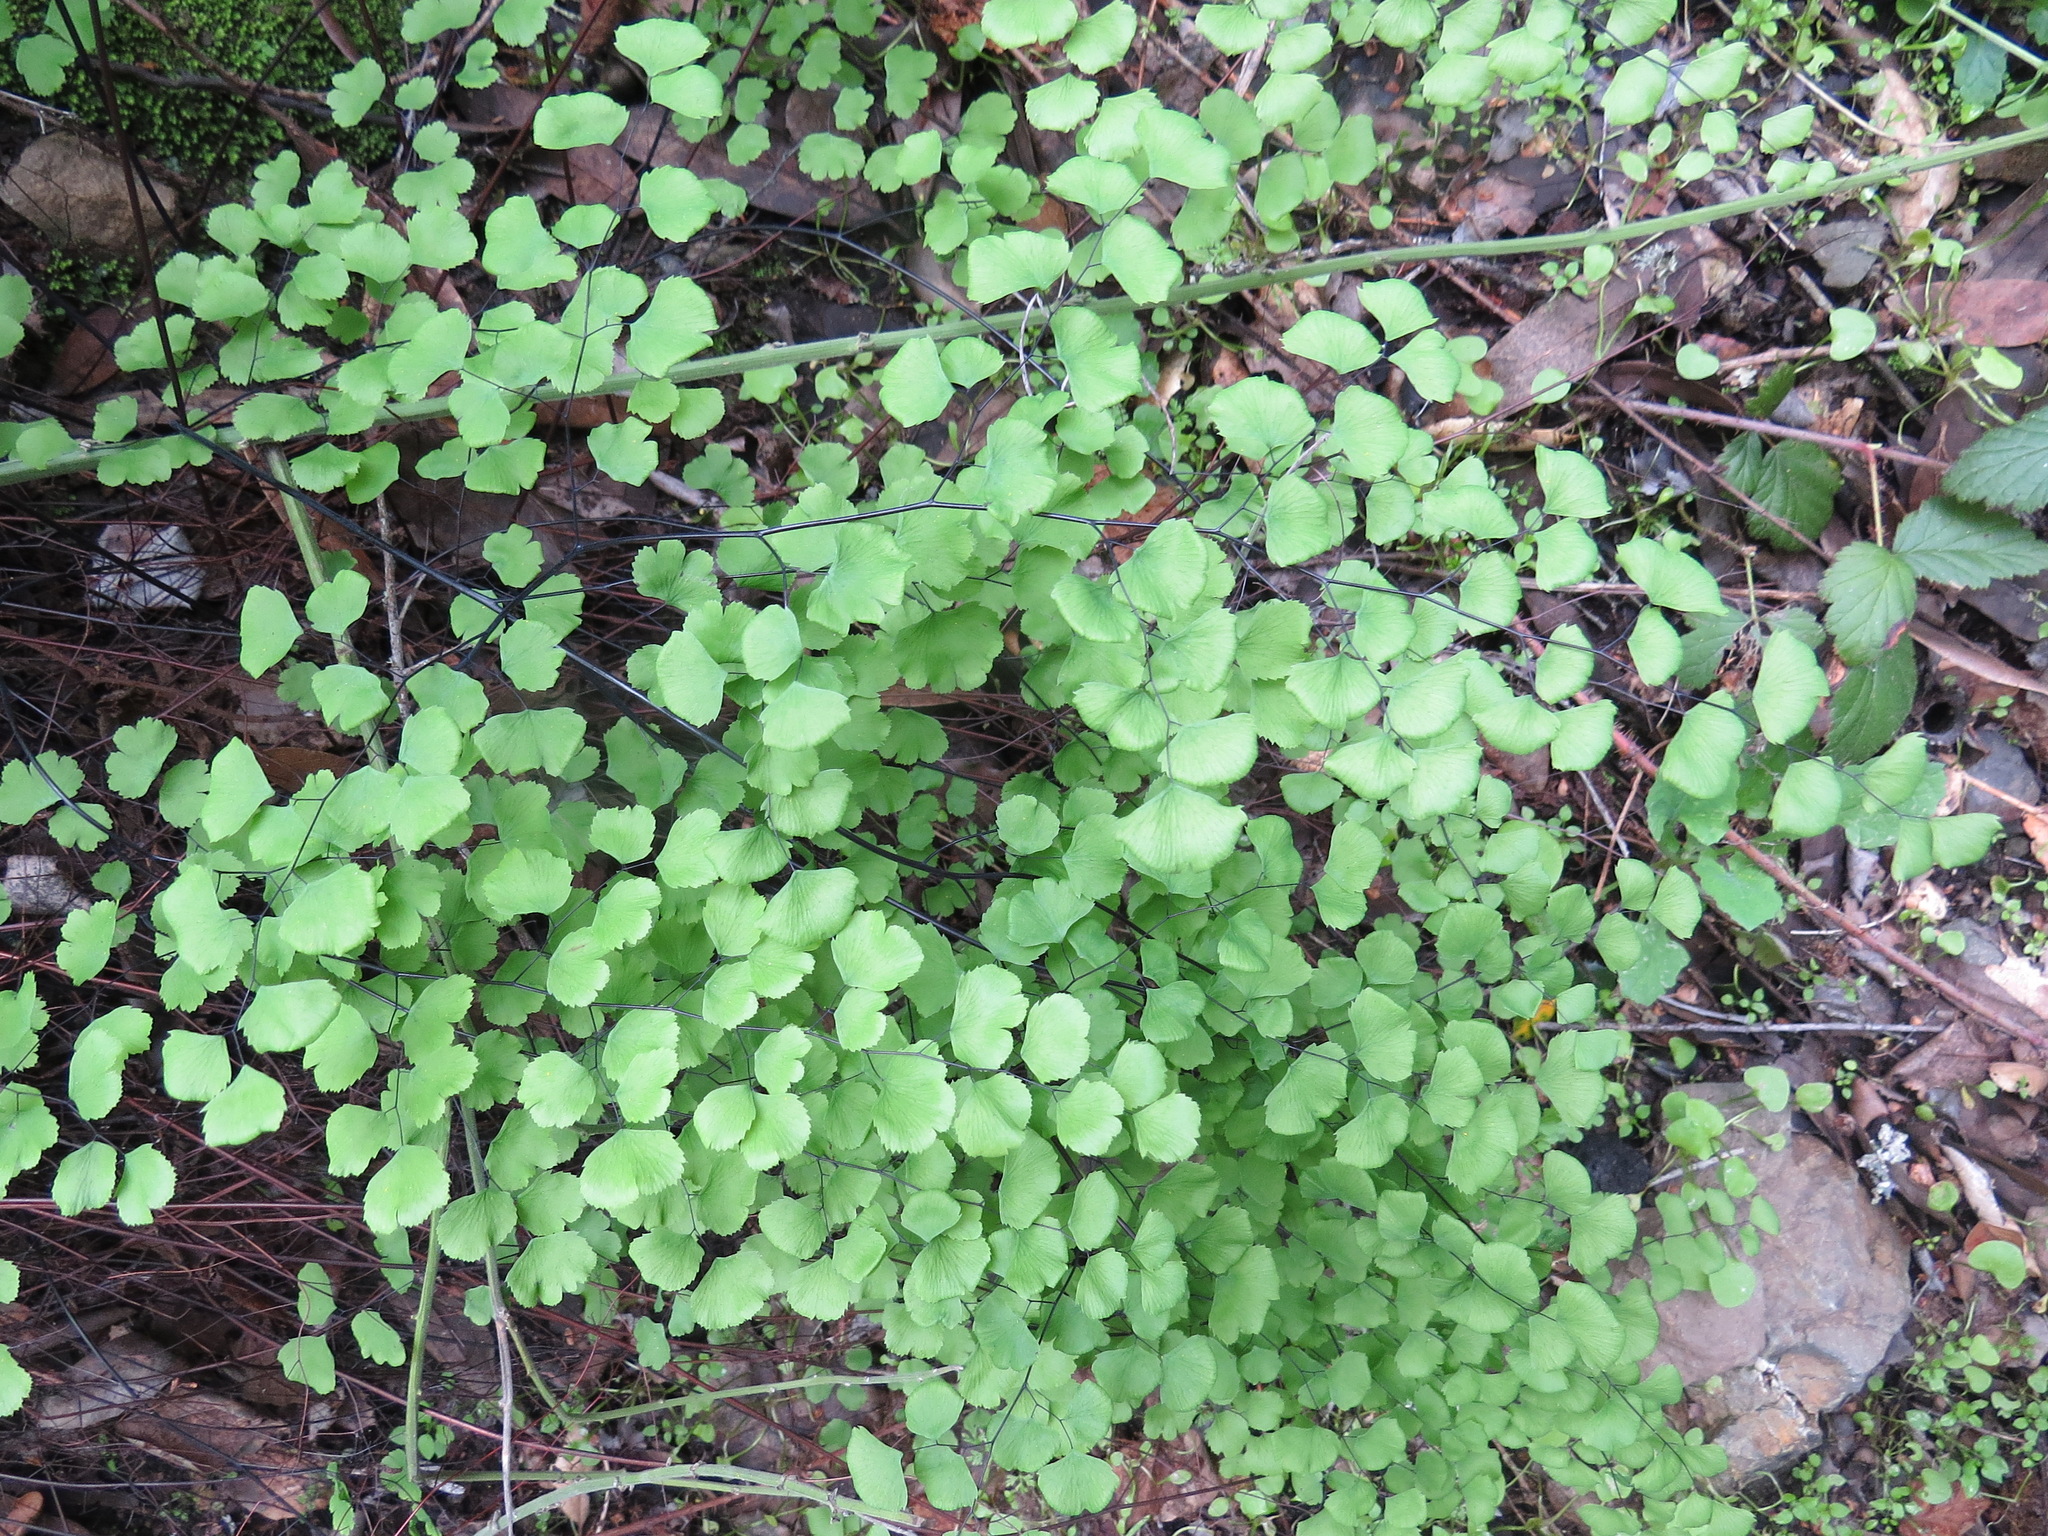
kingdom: Plantae
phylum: Tracheophyta
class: Polypodiopsida
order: Polypodiales
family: Pteridaceae
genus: Adiantum
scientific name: Adiantum jordanii
